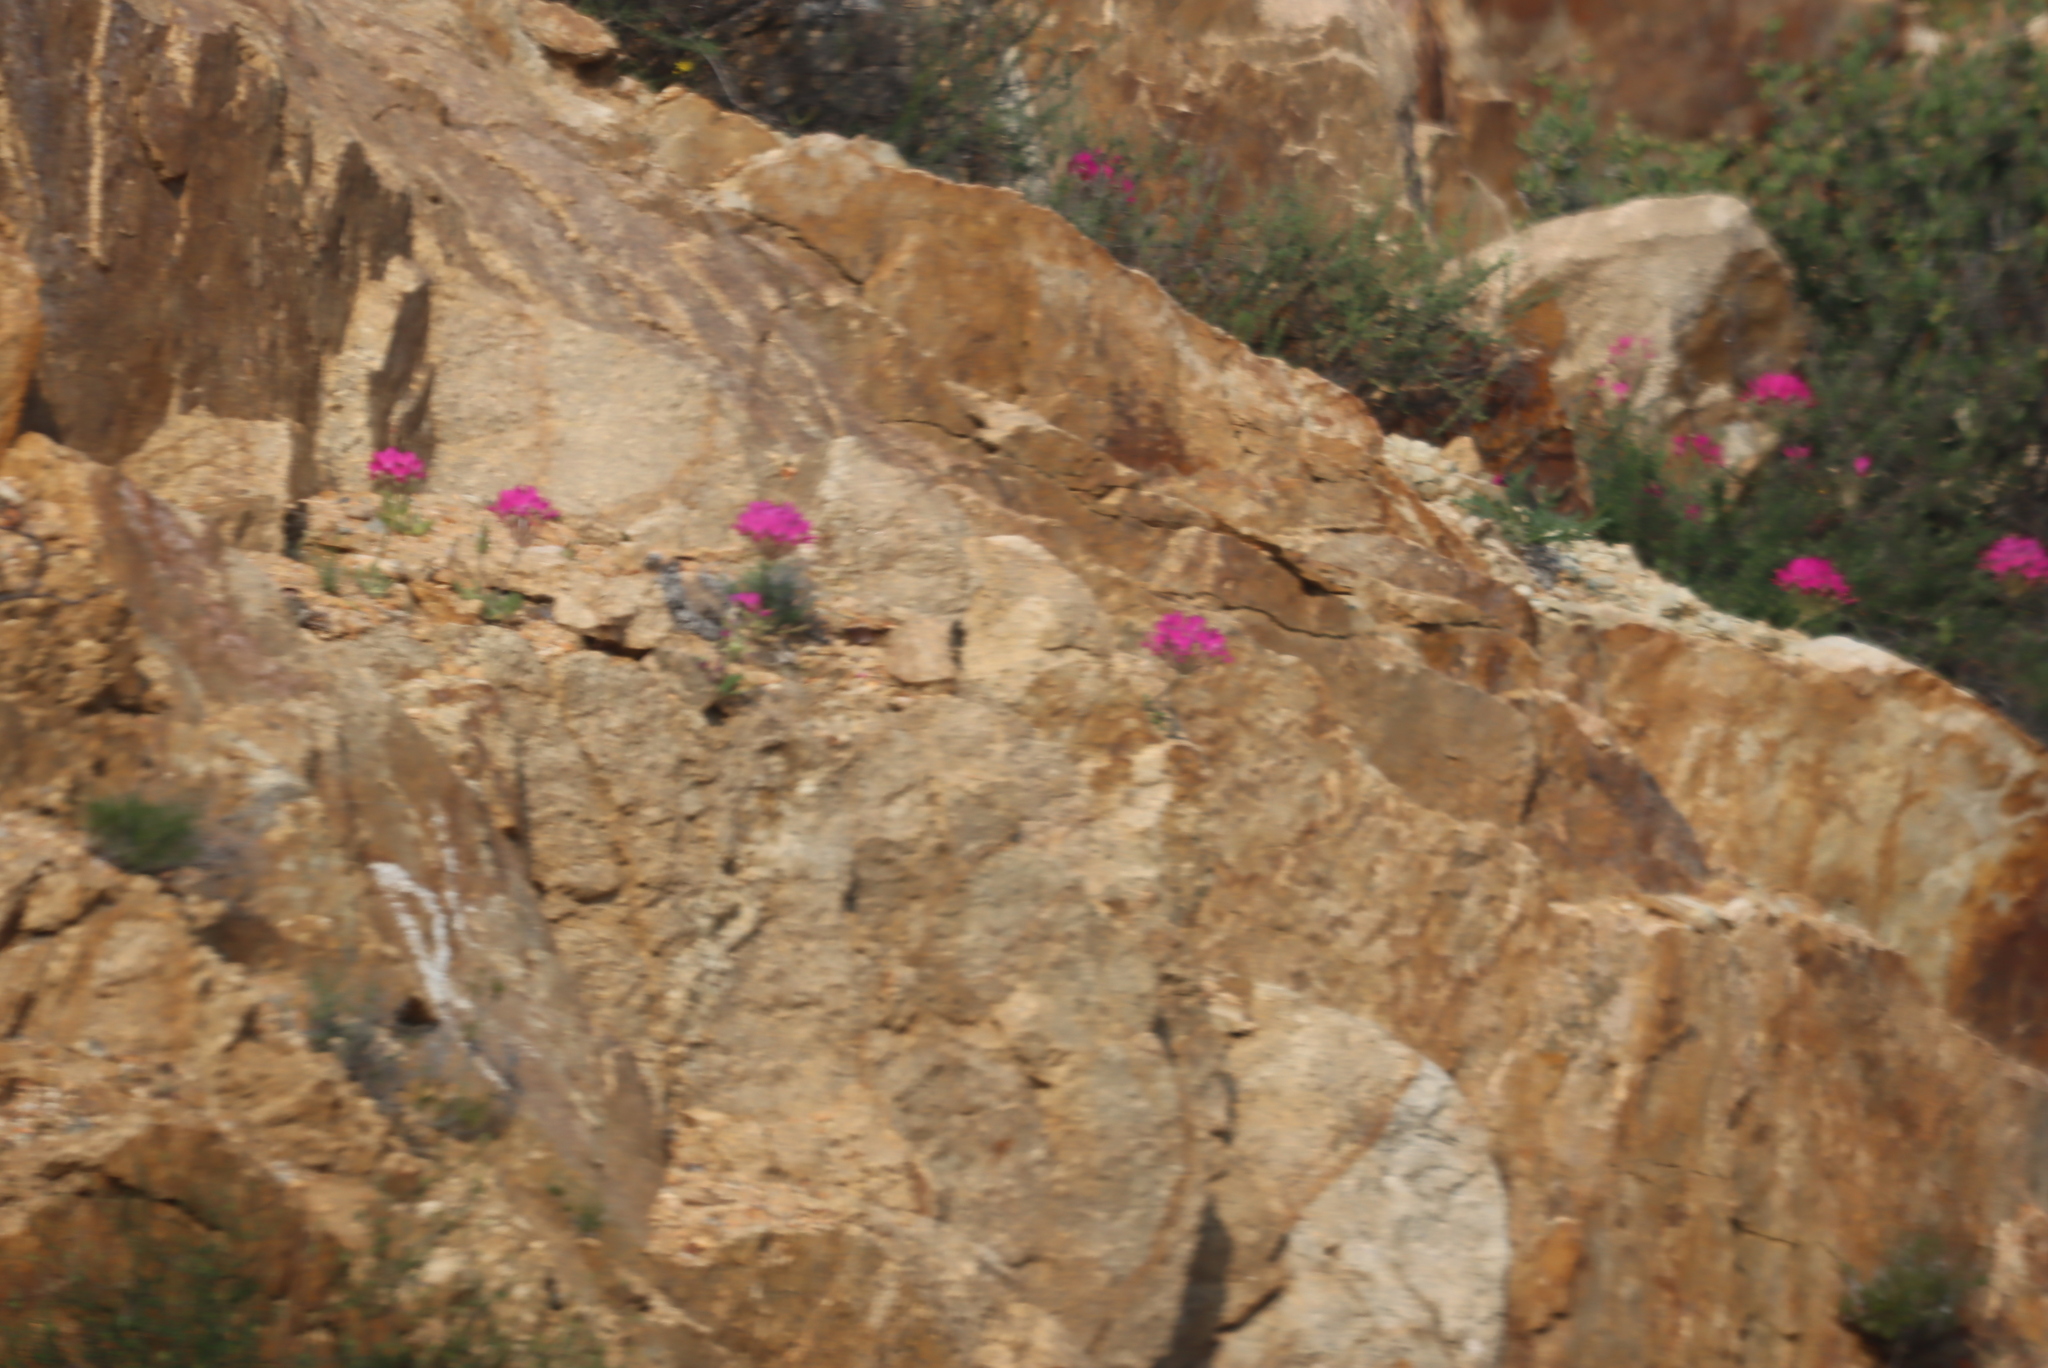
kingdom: Plantae
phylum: Tracheophyta
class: Magnoliopsida
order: Geraniales
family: Geraniaceae
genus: Pelargonium
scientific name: Pelargonium incrassatum
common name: Namaqualand beauty
